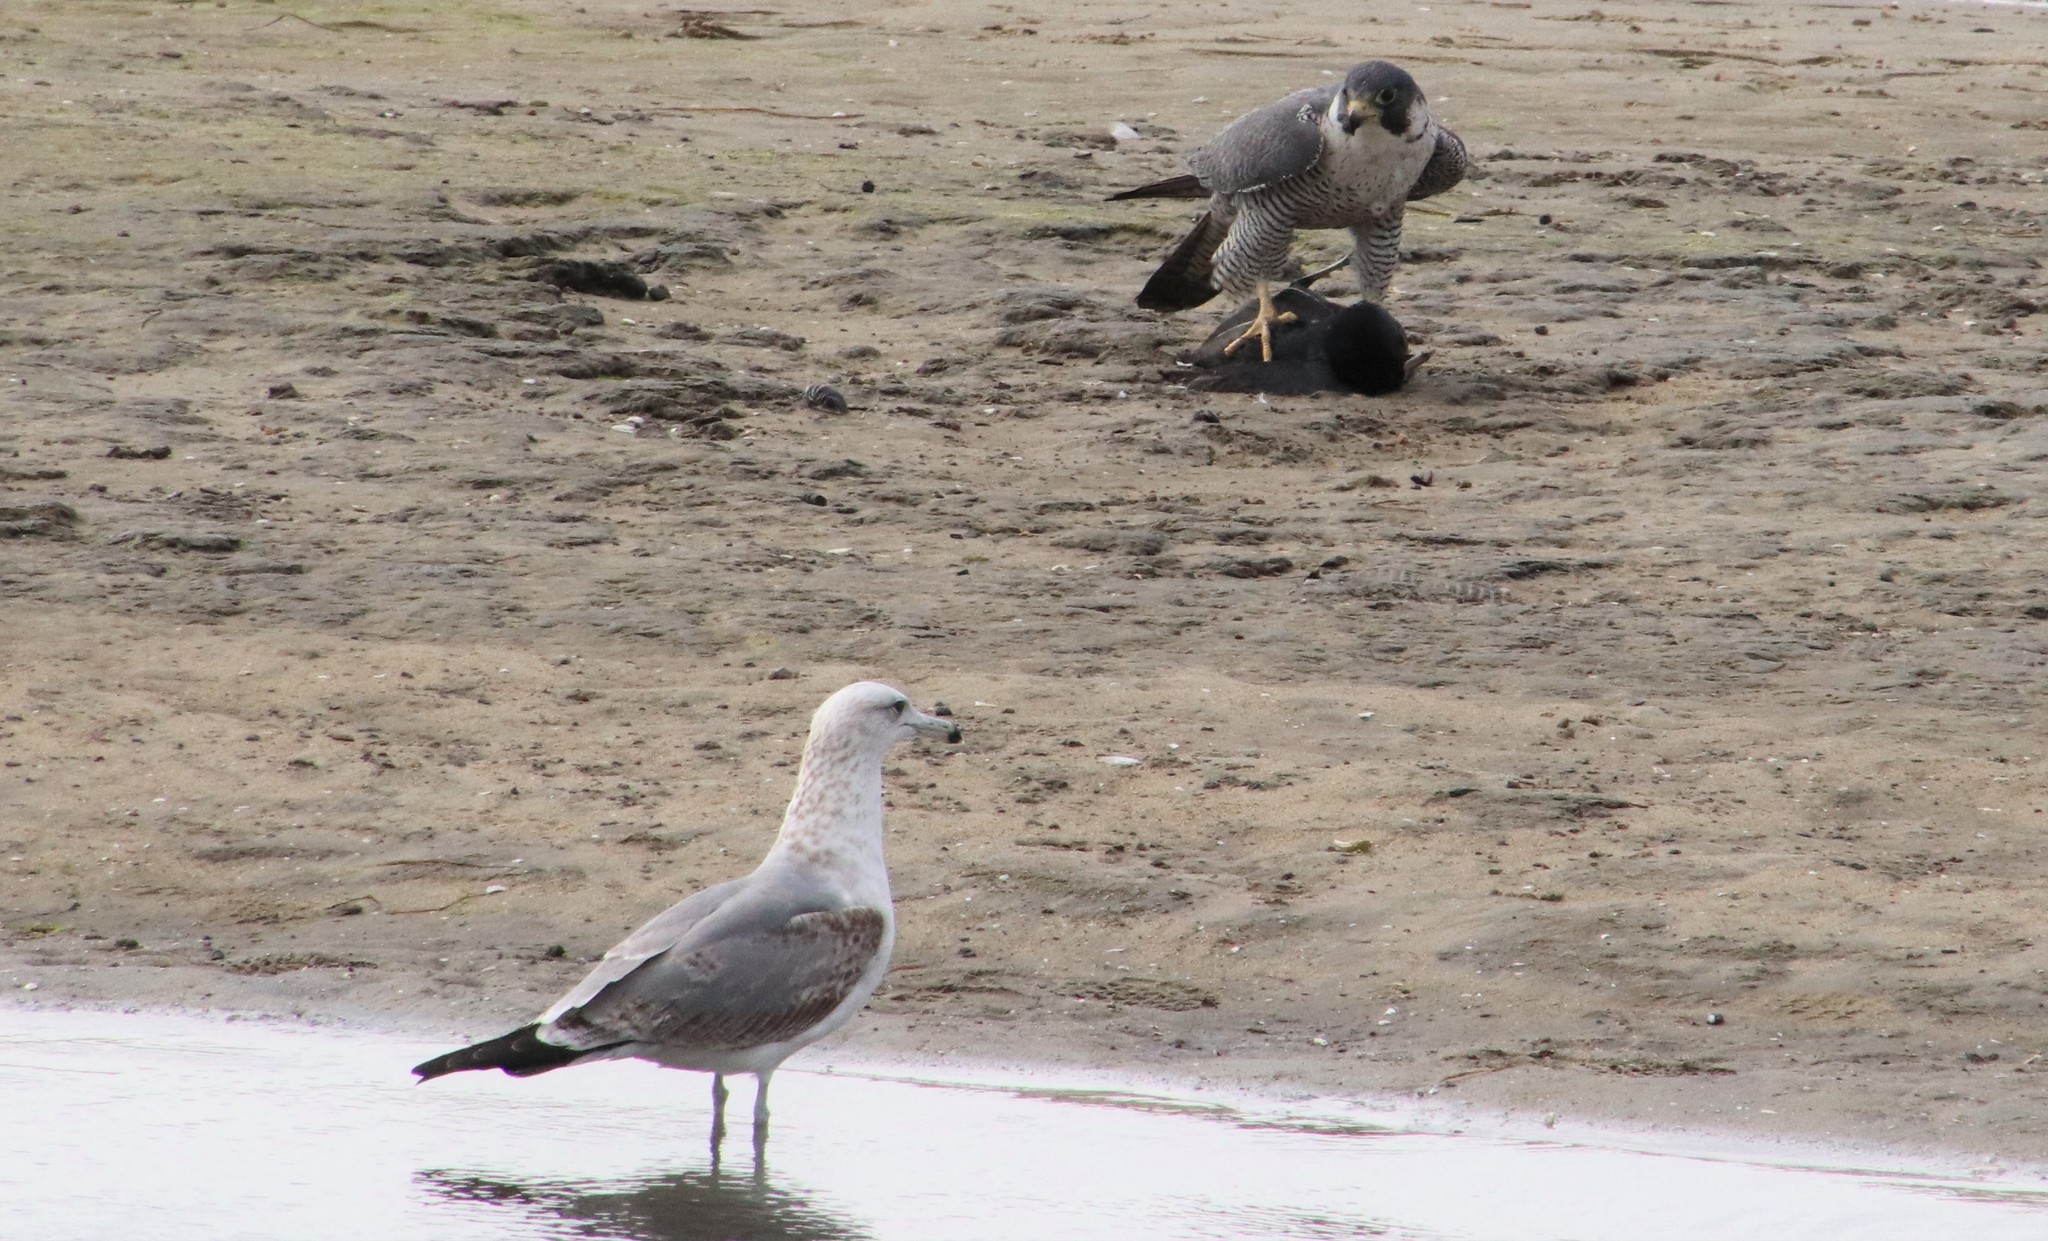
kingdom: Animalia
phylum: Chordata
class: Aves
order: Charadriiformes
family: Laridae
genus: Larus
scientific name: Larus californicus
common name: California gull
